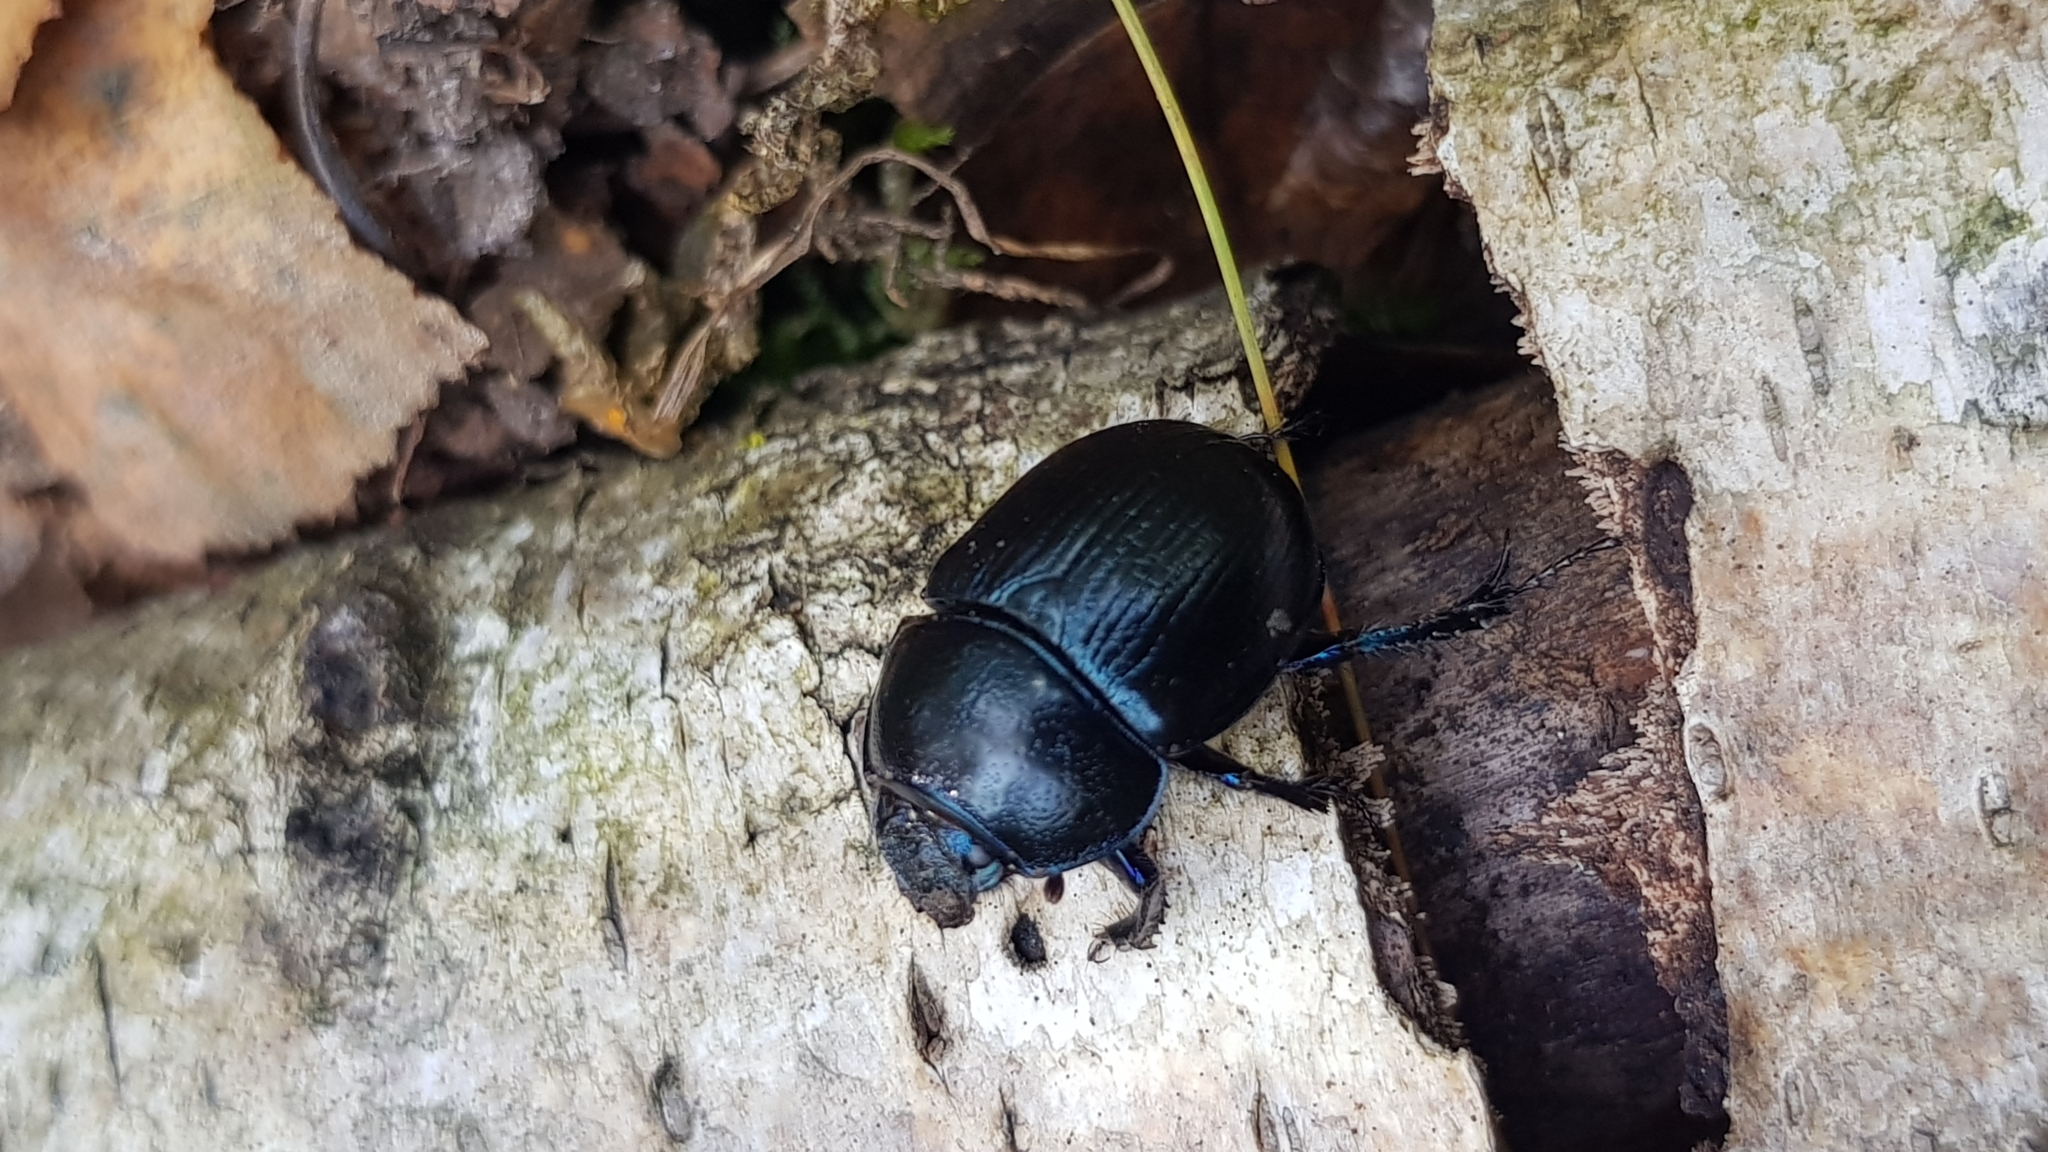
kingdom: Animalia
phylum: Arthropoda
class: Insecta
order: Coleoptera
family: Geotrupidae
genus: Anoplotrupes
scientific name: Anoplotrupes stercorosus
